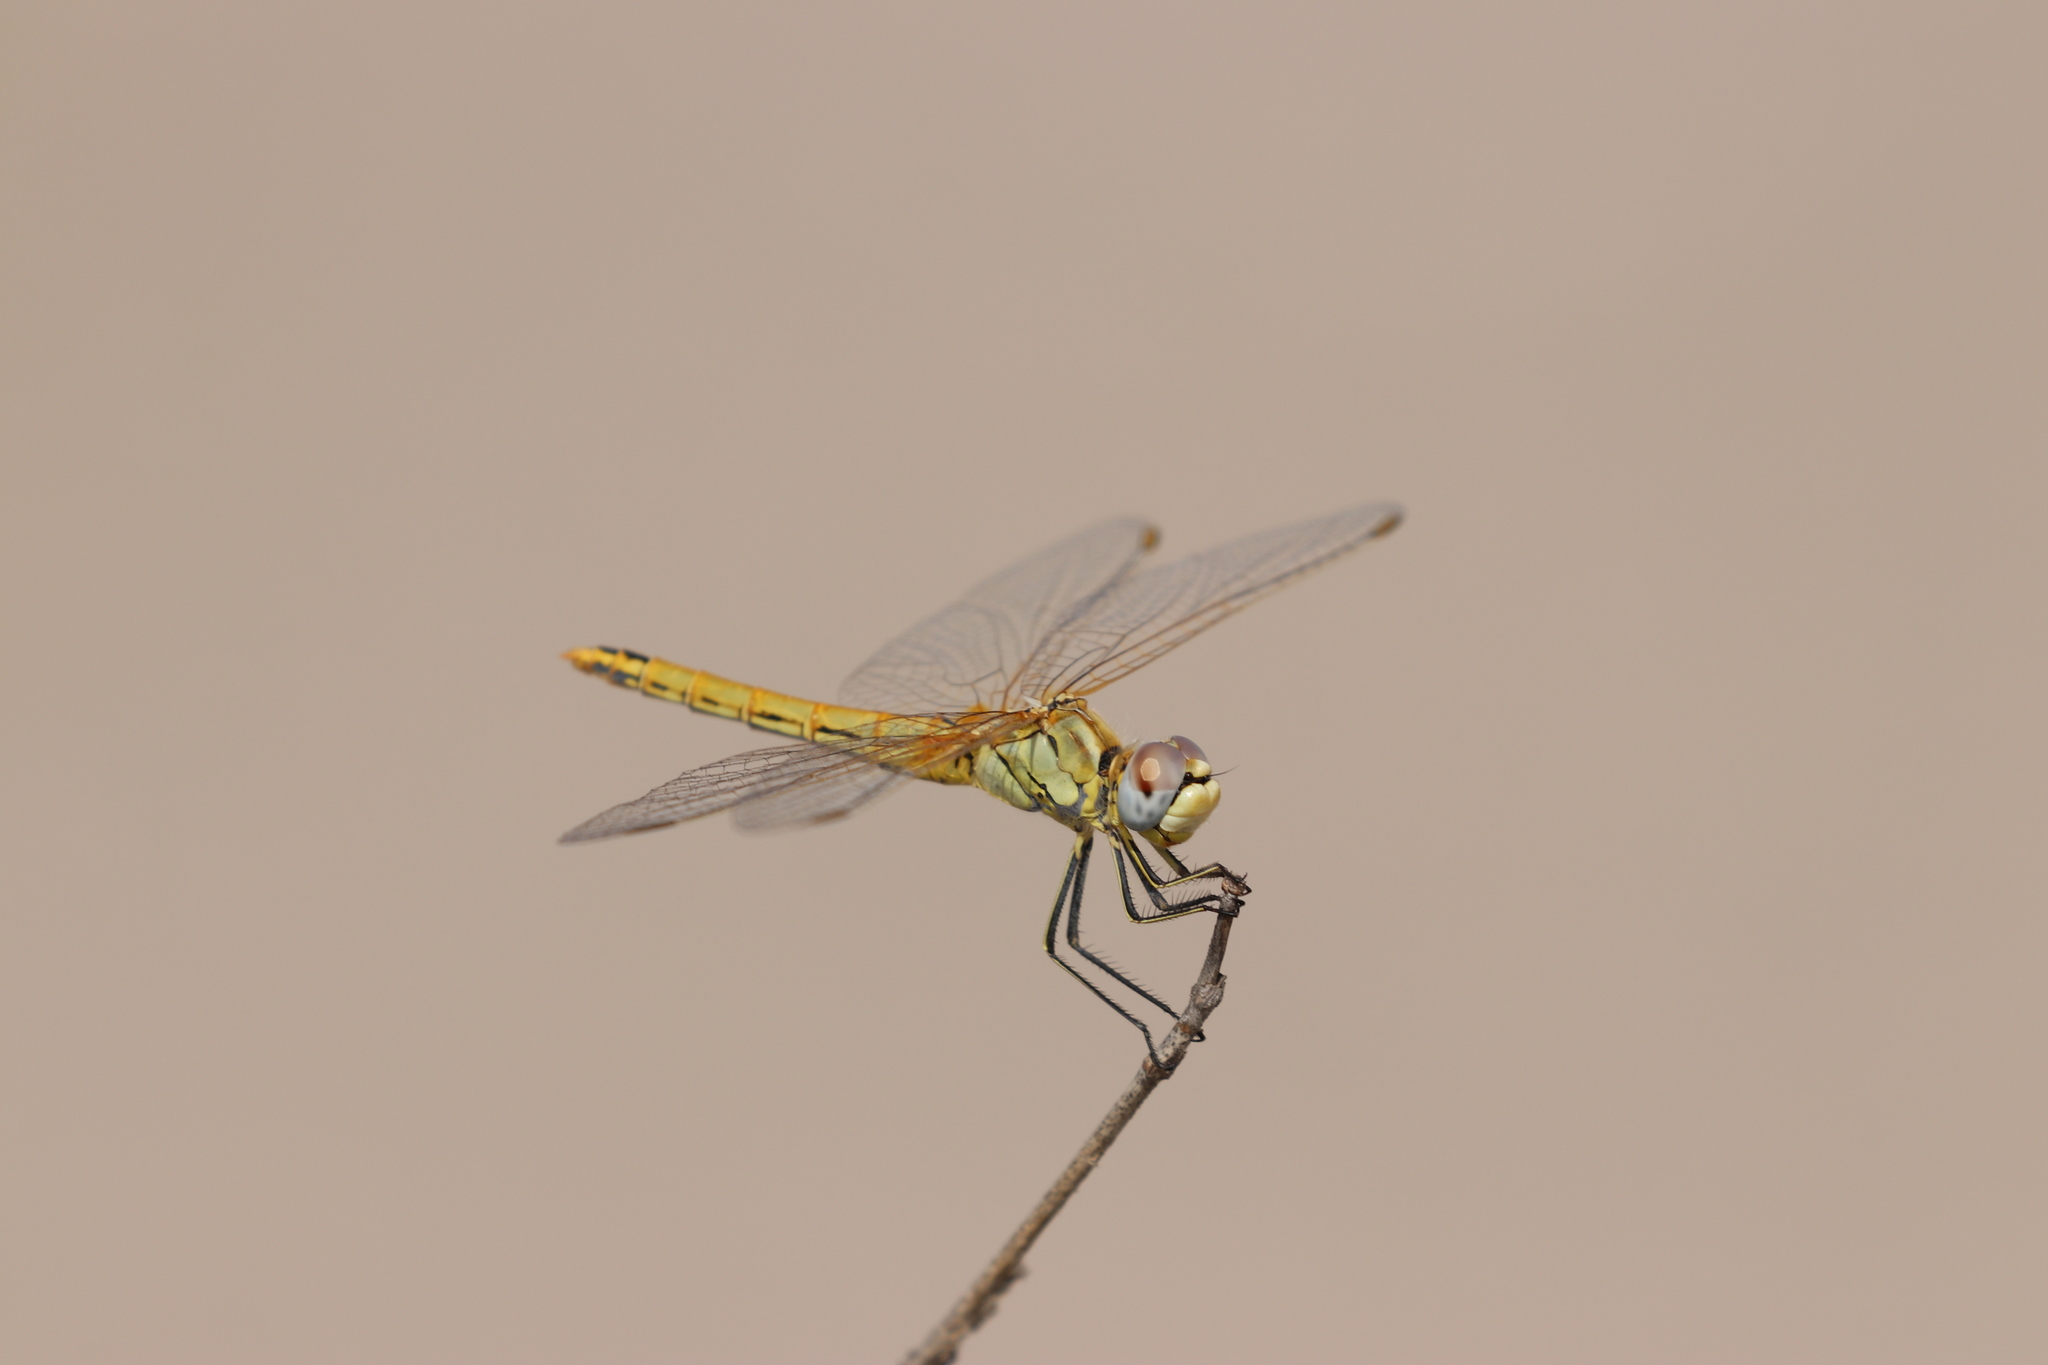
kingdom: Animalia
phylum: Arthropoda
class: Insecta
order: Odonata
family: Libellulidae
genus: Sympetrum
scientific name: Sympetrum fonscolombii
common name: Red-veined darter
